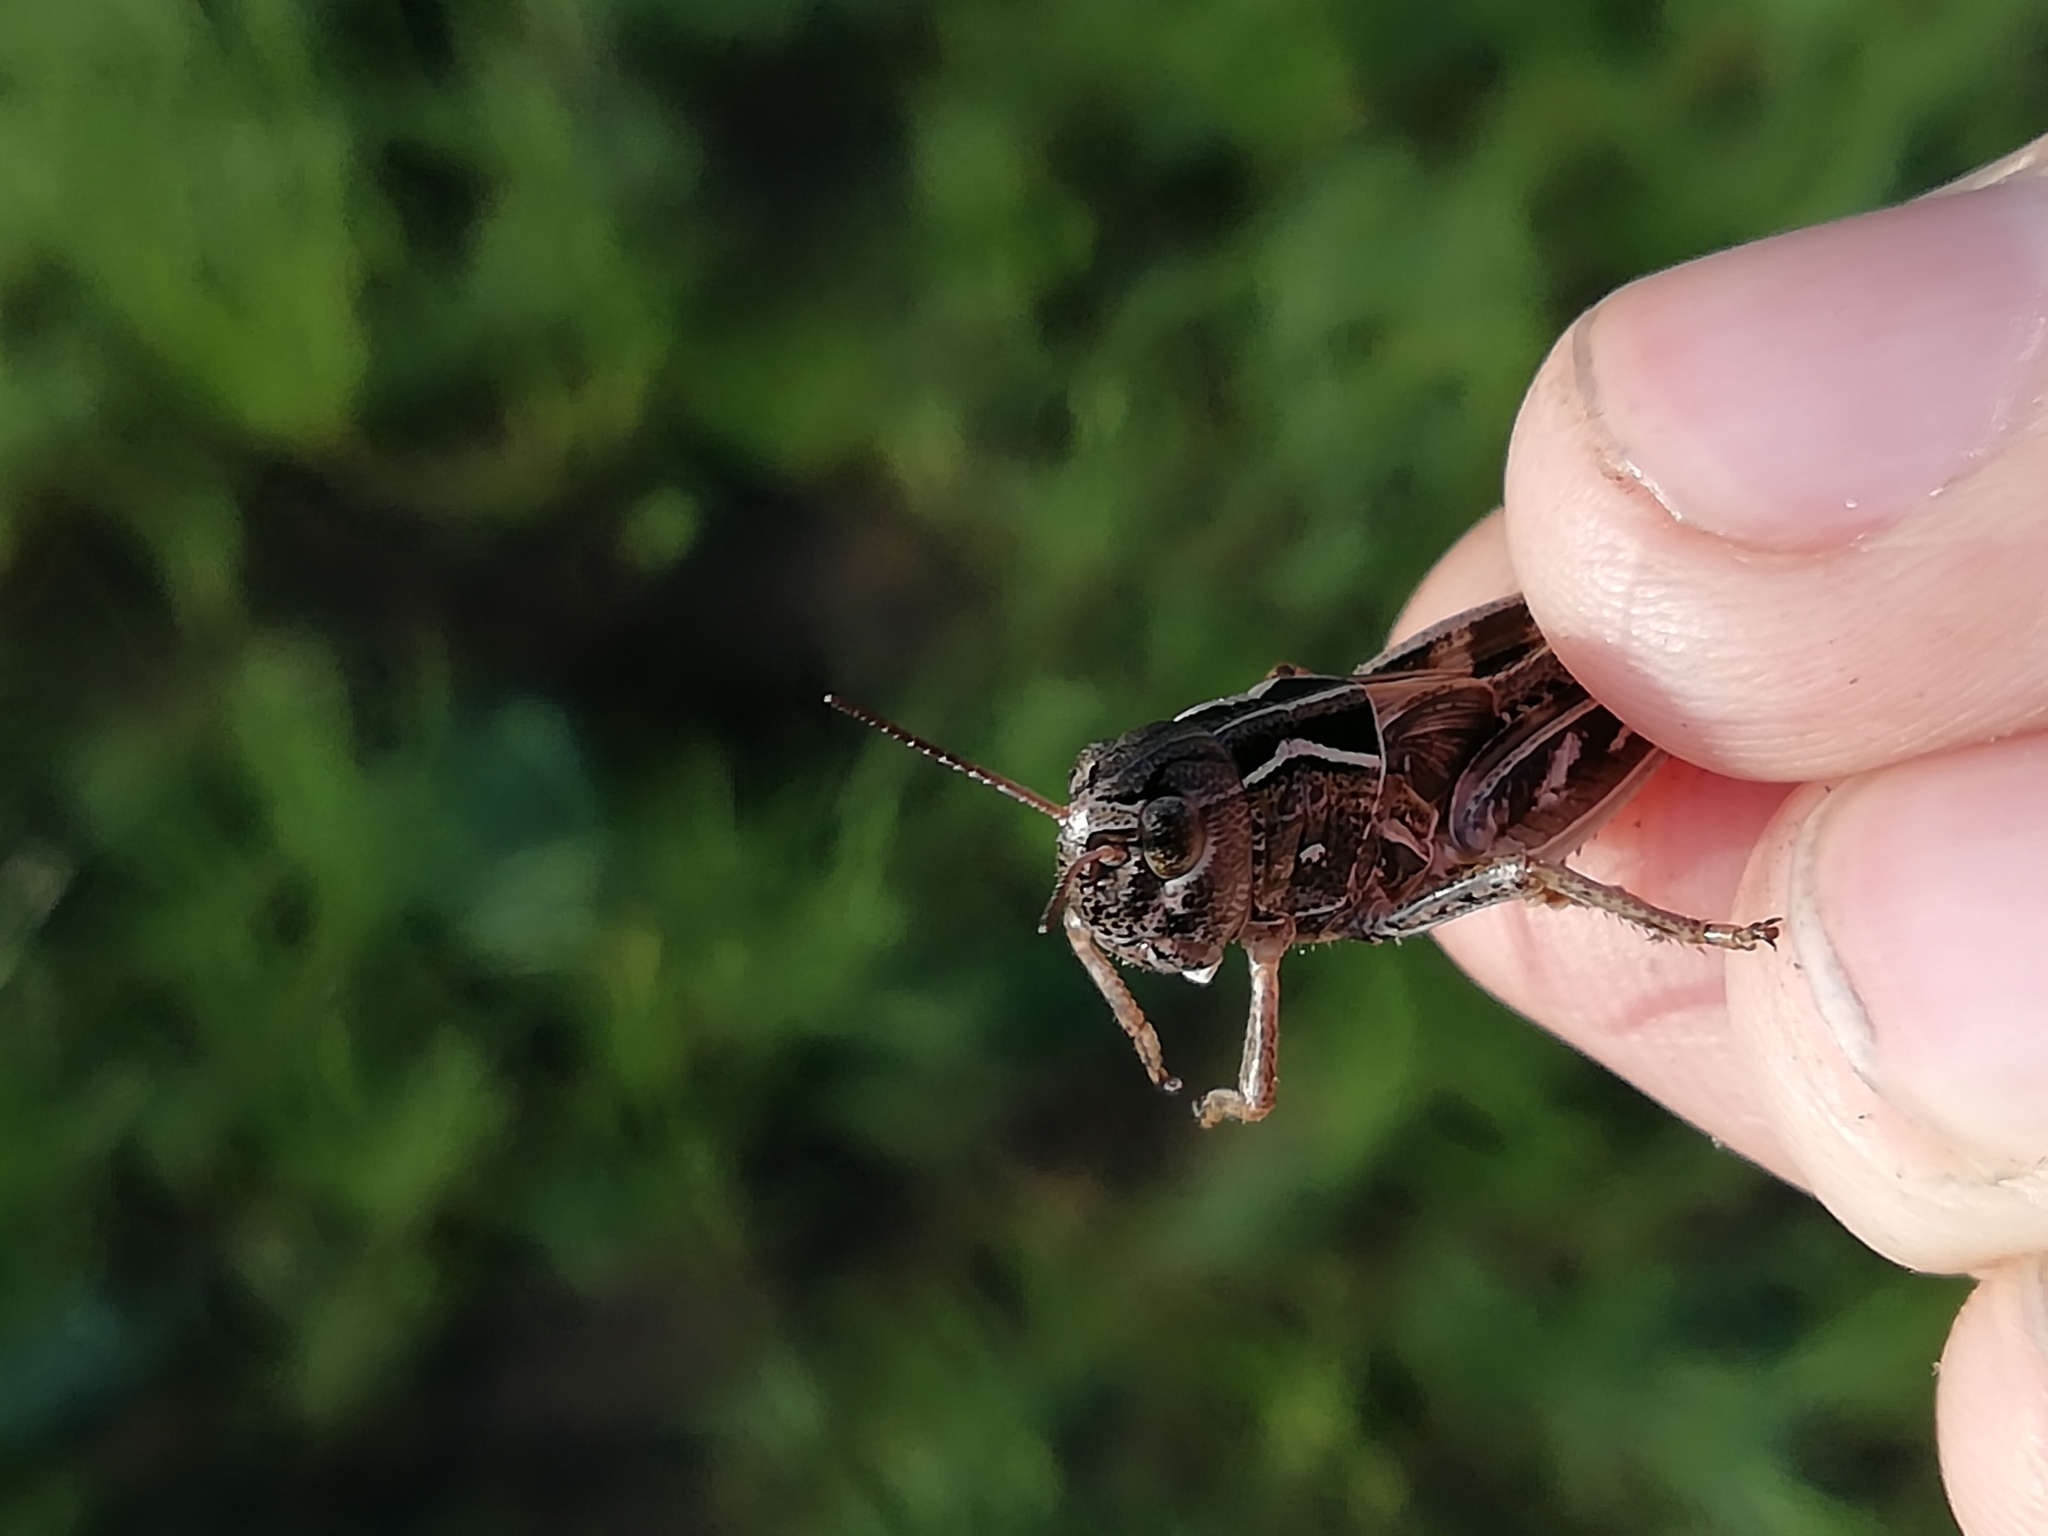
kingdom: Animalia
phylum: Arthropoda
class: Insecta
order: Orthoptera
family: Acrididae
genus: Arcyptera
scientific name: Arcyptera microptera
